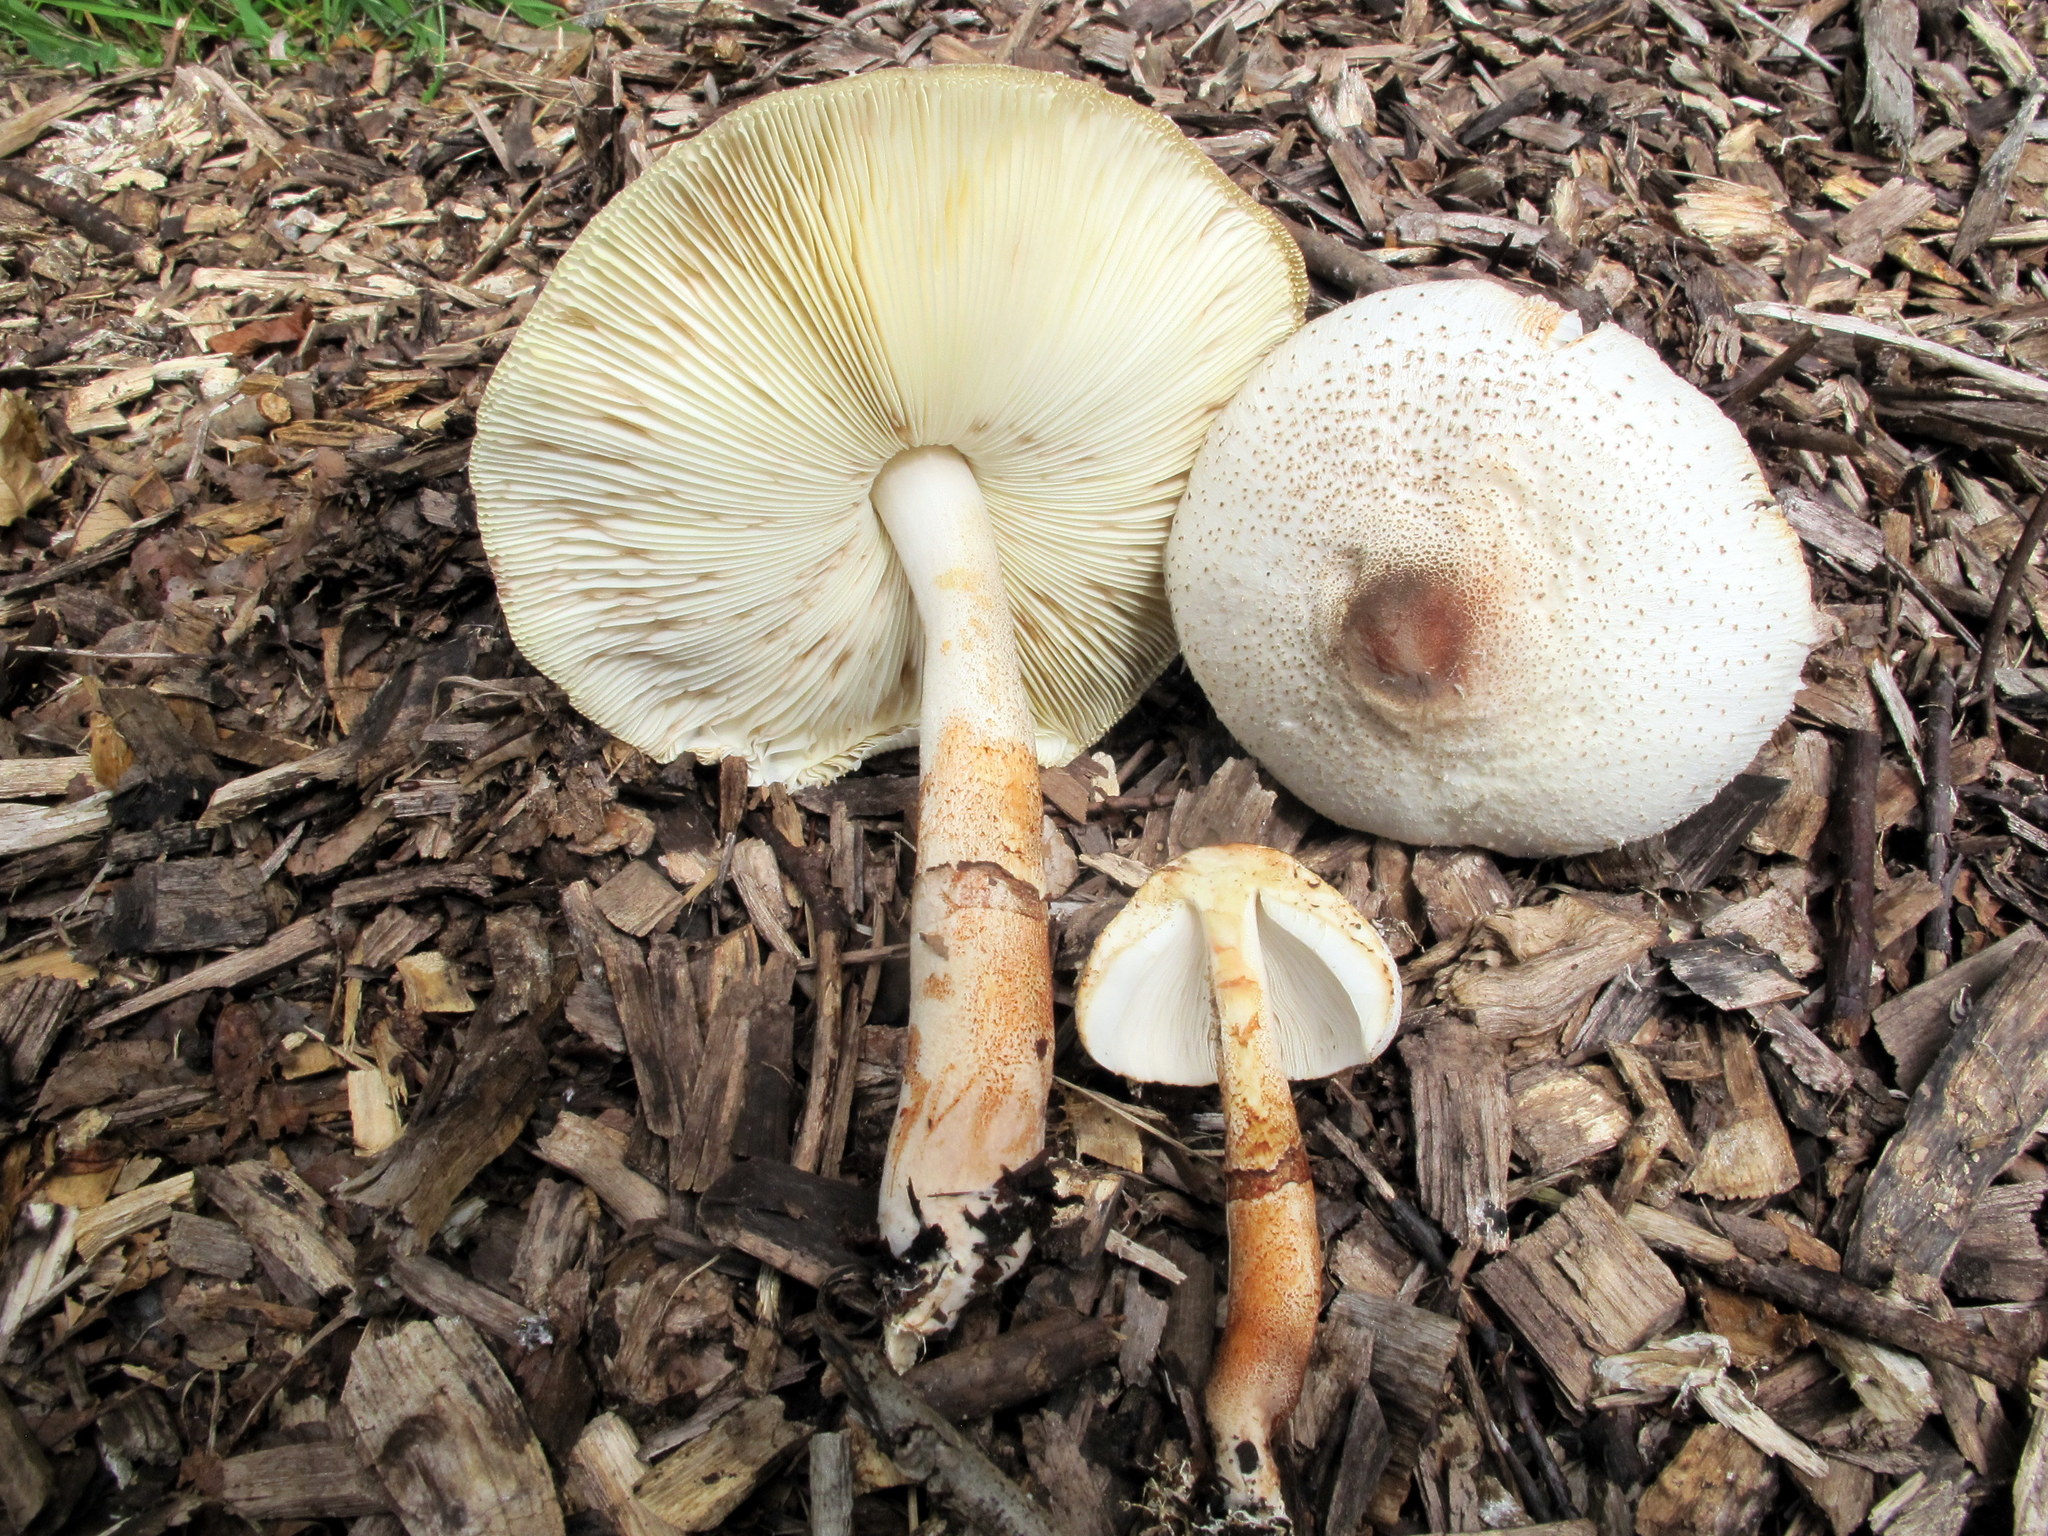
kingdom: Fungi
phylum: Basidiomycota
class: Agaricomycetes
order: Agaricales
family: Agaricaceae
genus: Leucoagaricus
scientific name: Leucoagaricus americanus
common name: Reddening lepiota
